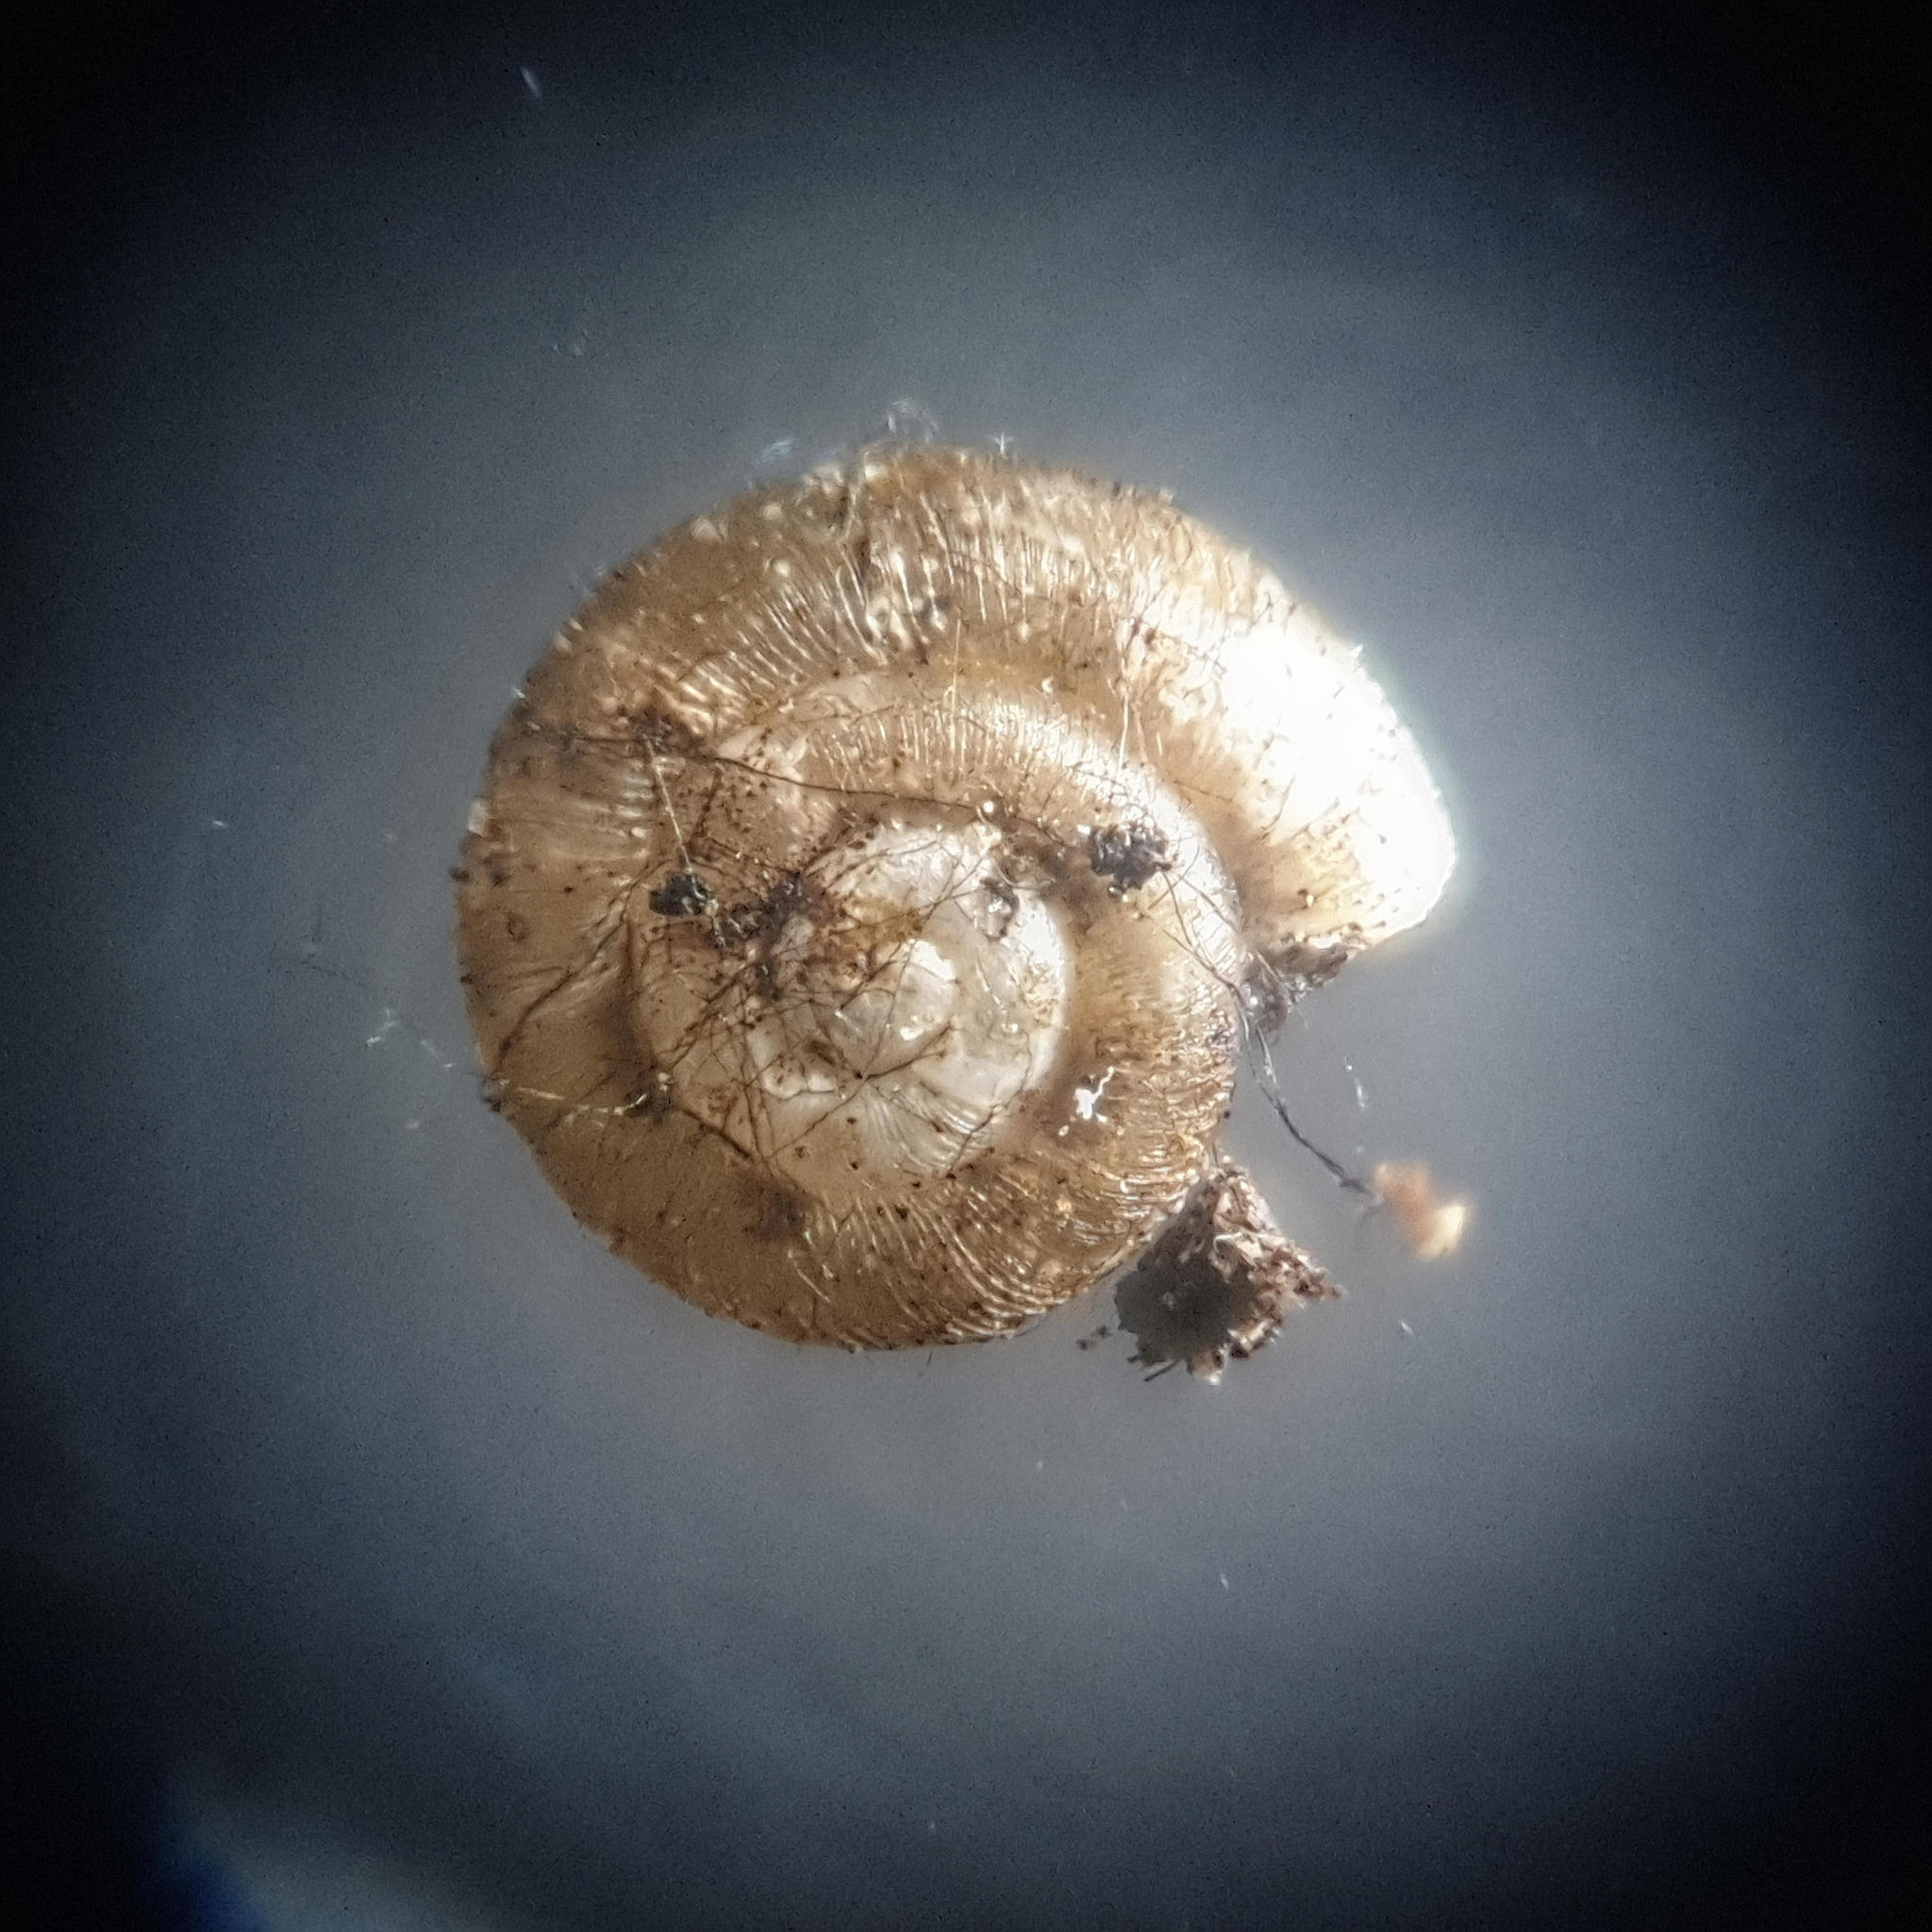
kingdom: Animalia
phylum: Mollusca
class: Gastropoda
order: Stylommatophora
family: Punctidae
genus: Punctum
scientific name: Punctum pygmaeum
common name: Dwarf snail
